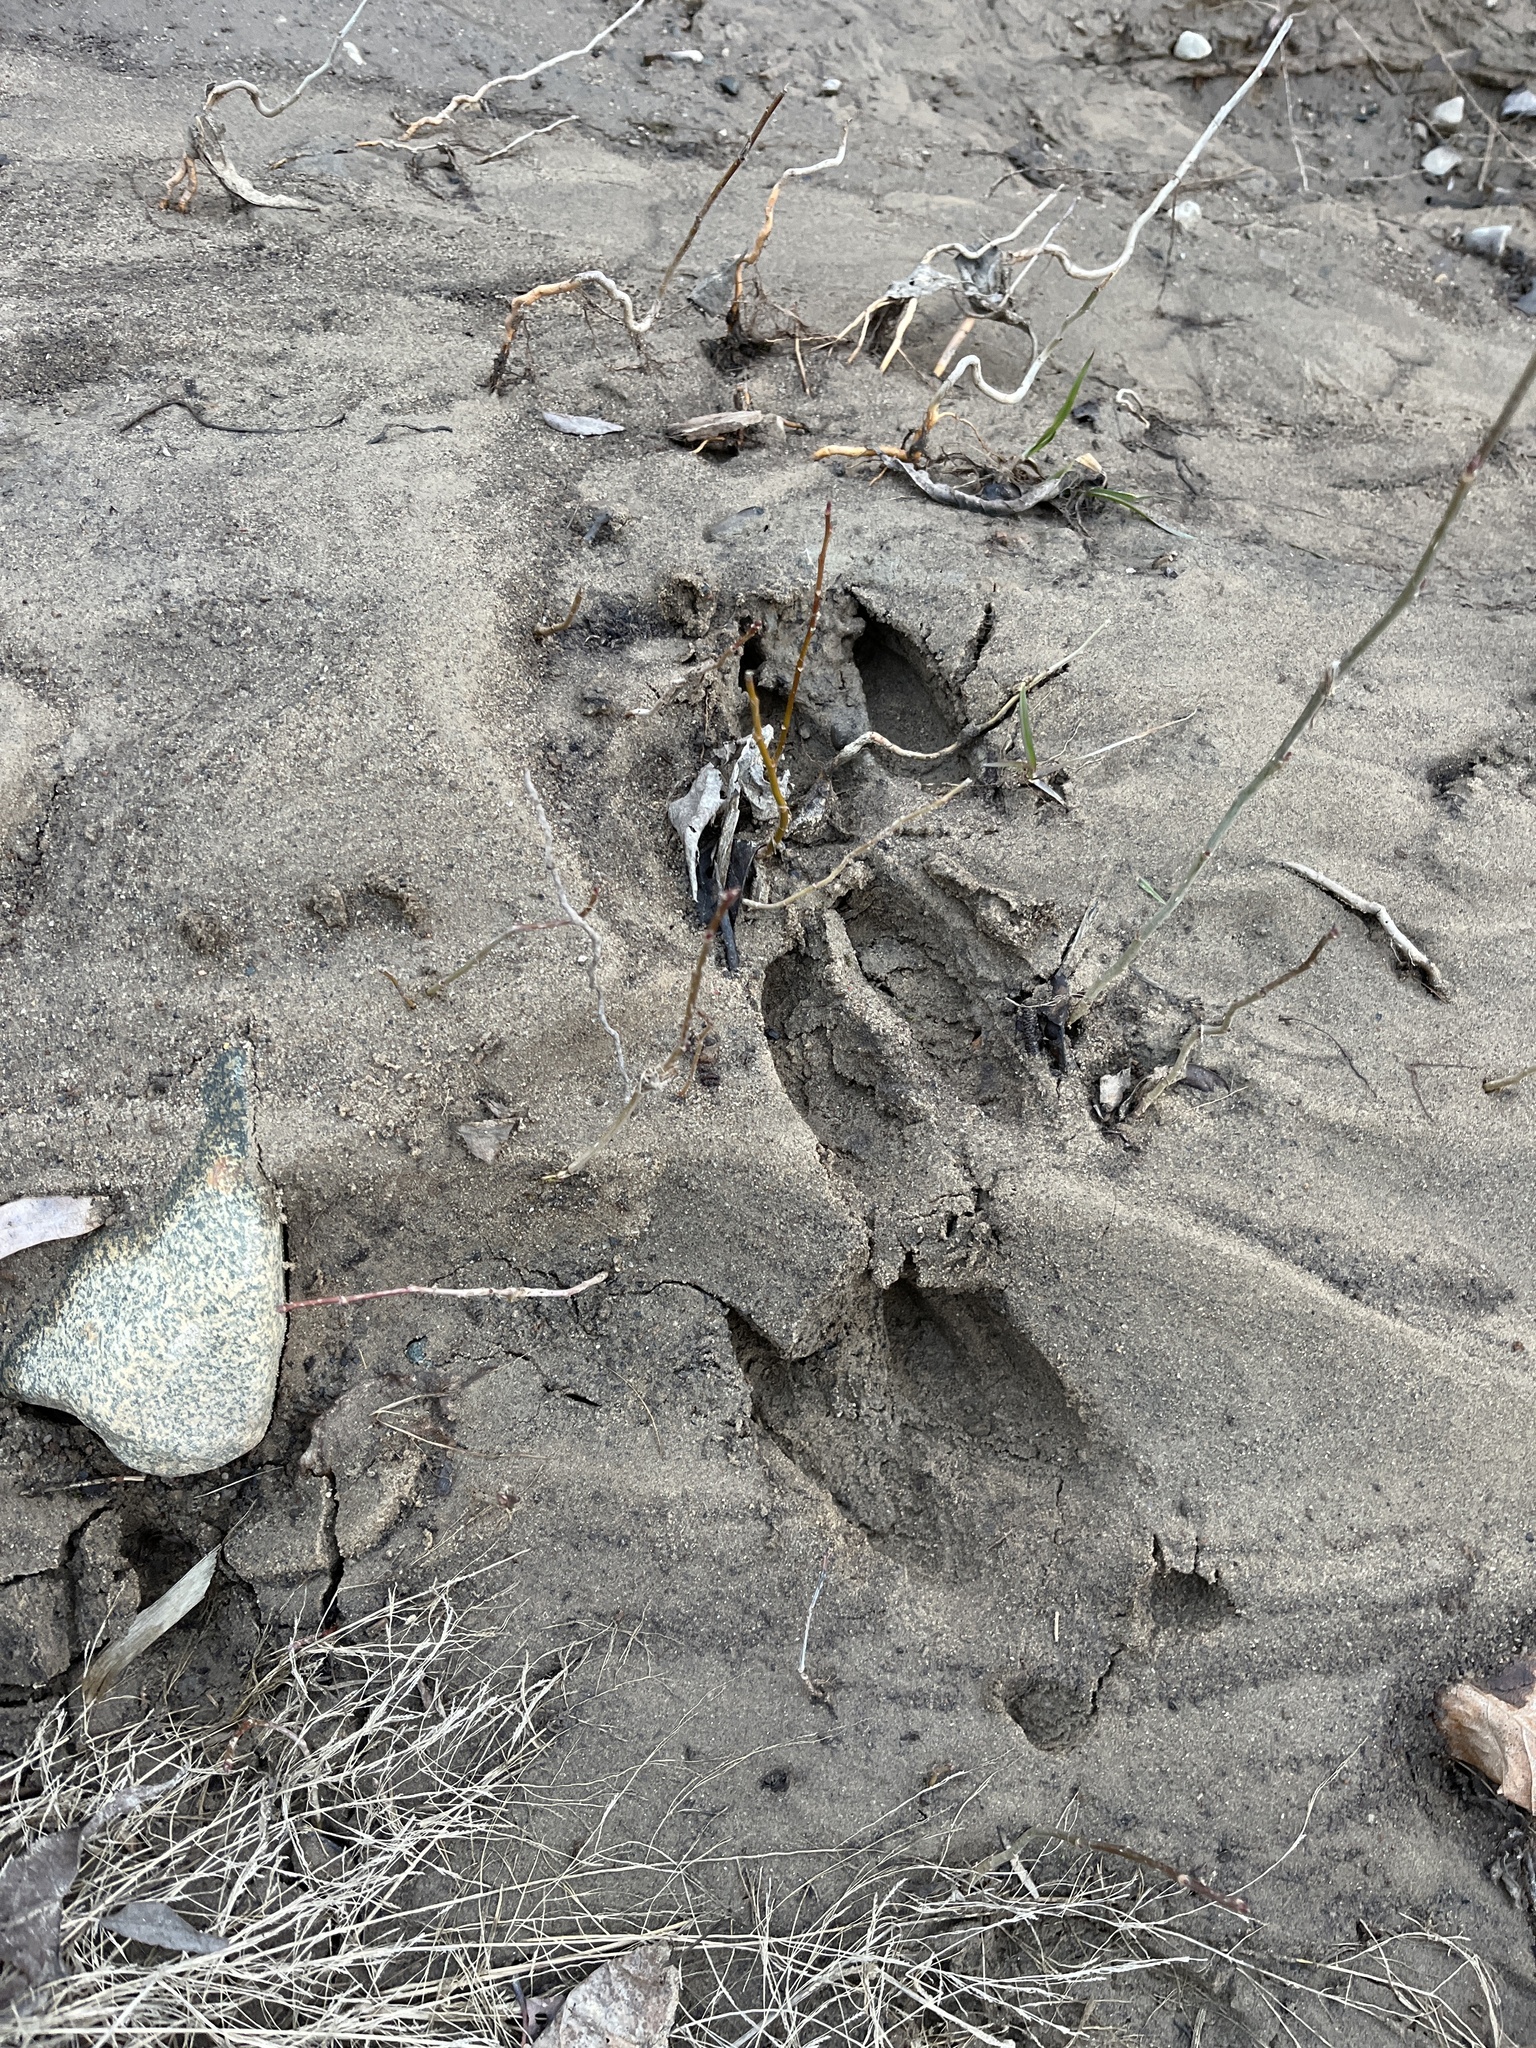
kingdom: Animalia
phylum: Chordata
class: Mammalia
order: Artiodactyla
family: Cervidae
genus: Odocoileus
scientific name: Odocoileus virginianus
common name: White-tailed deer
